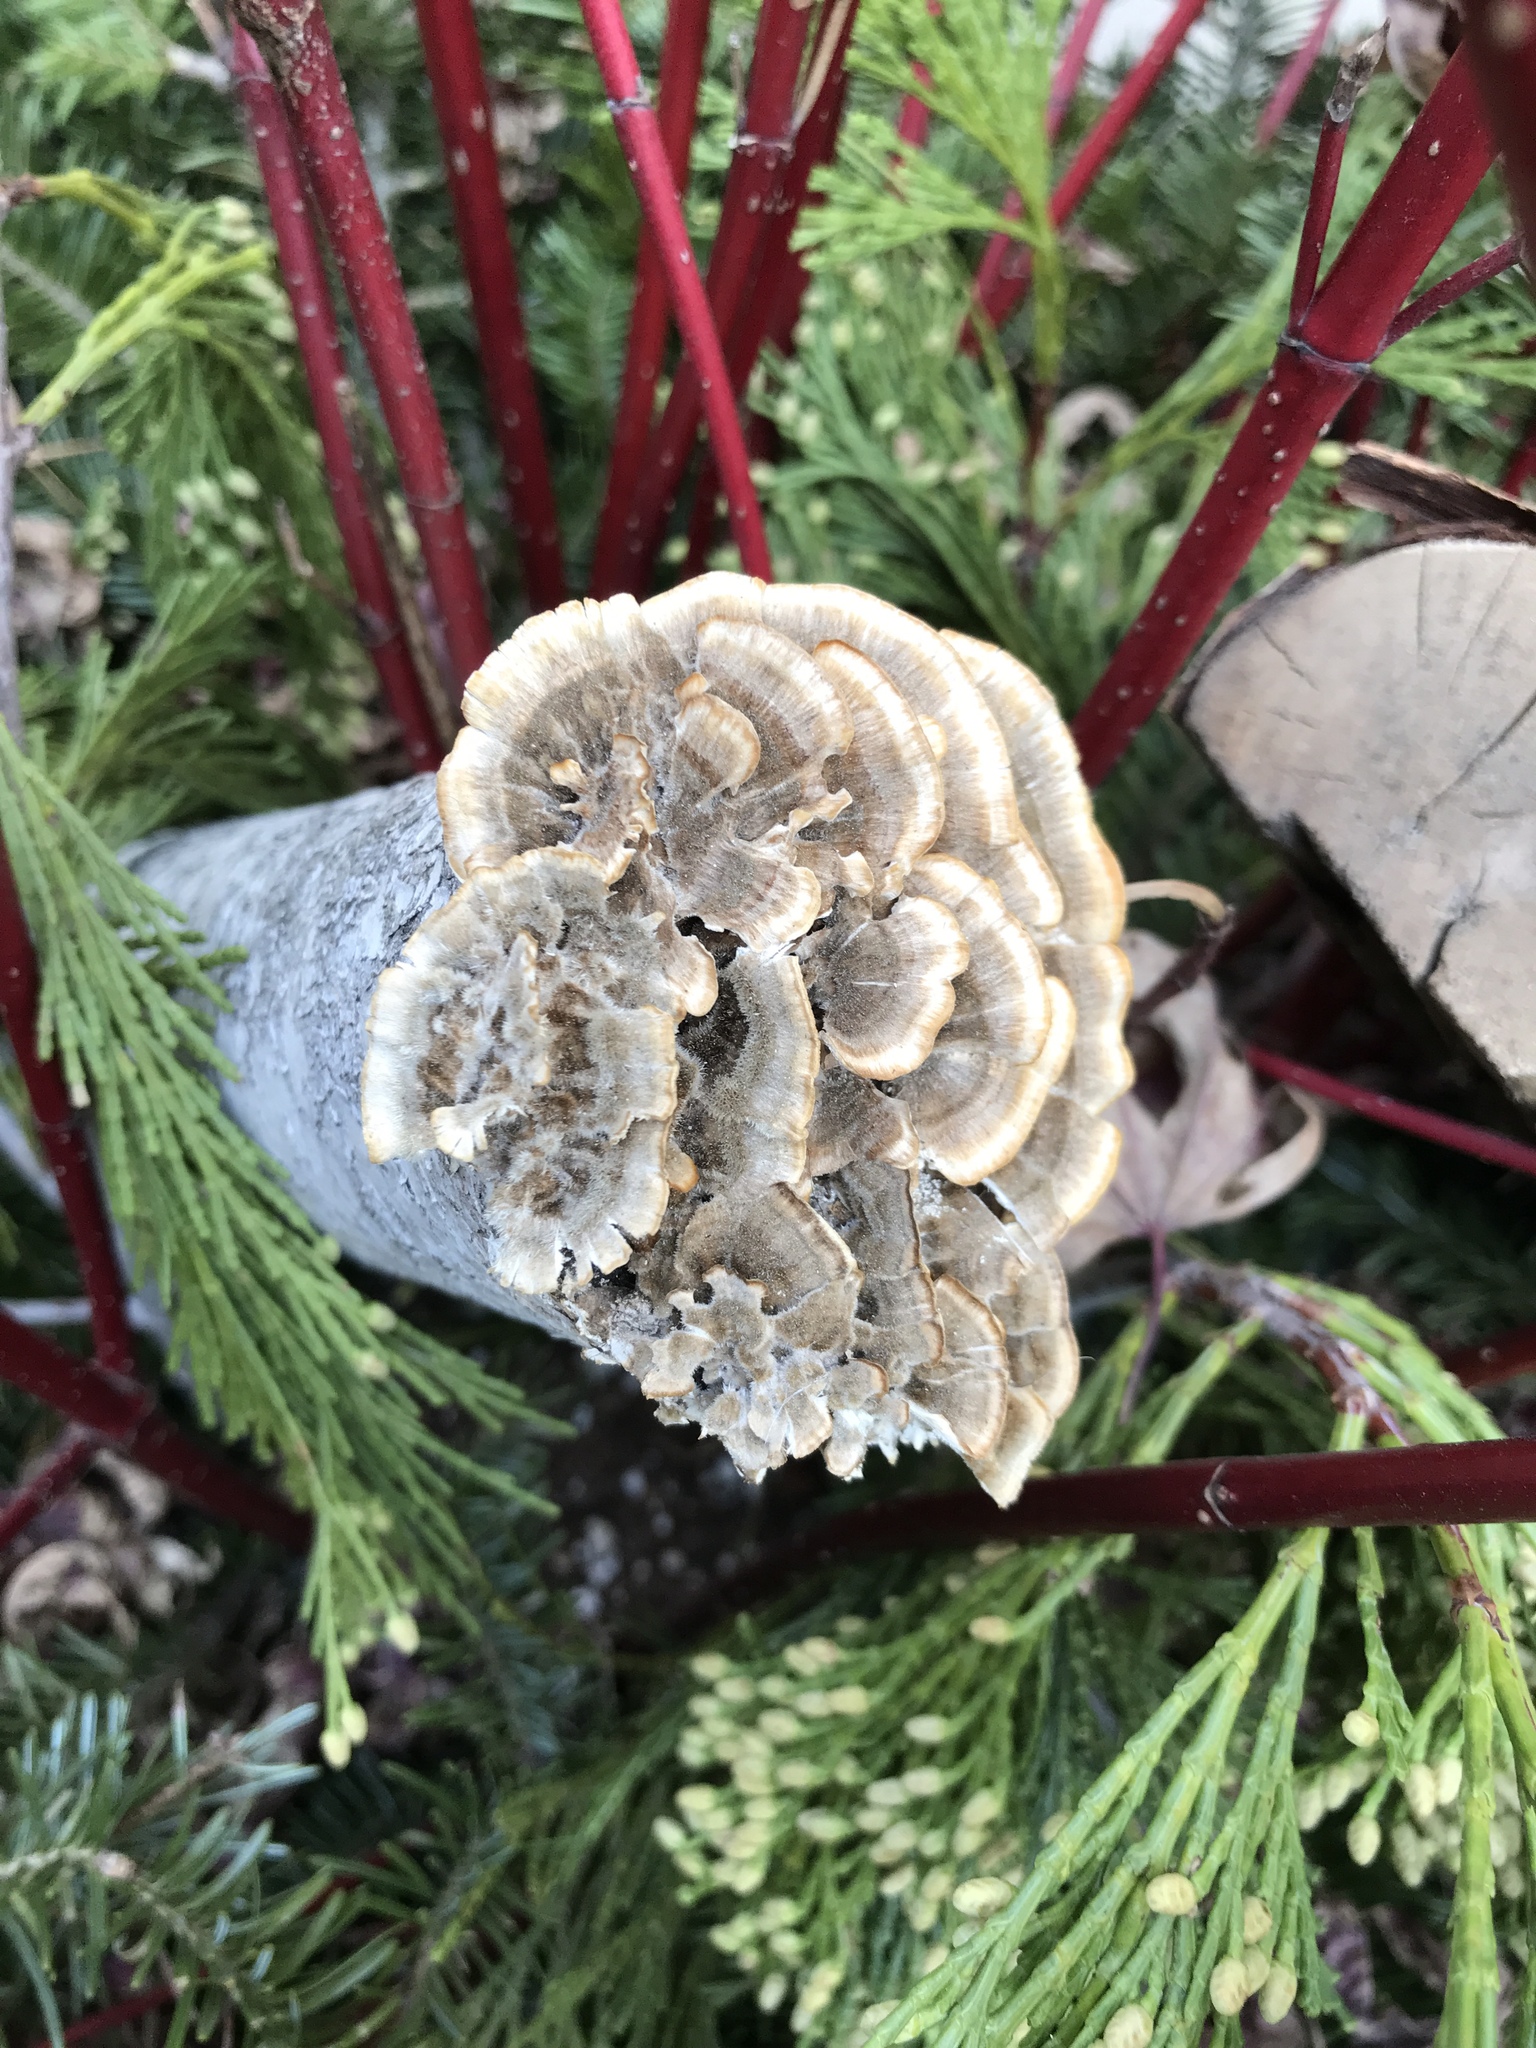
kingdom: Fungi
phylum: Basidiomycota
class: Agaricomycetes
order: Polyporales
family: Polyporaceae
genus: Trametes
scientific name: Trametes versicolor
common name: Turkeytail
